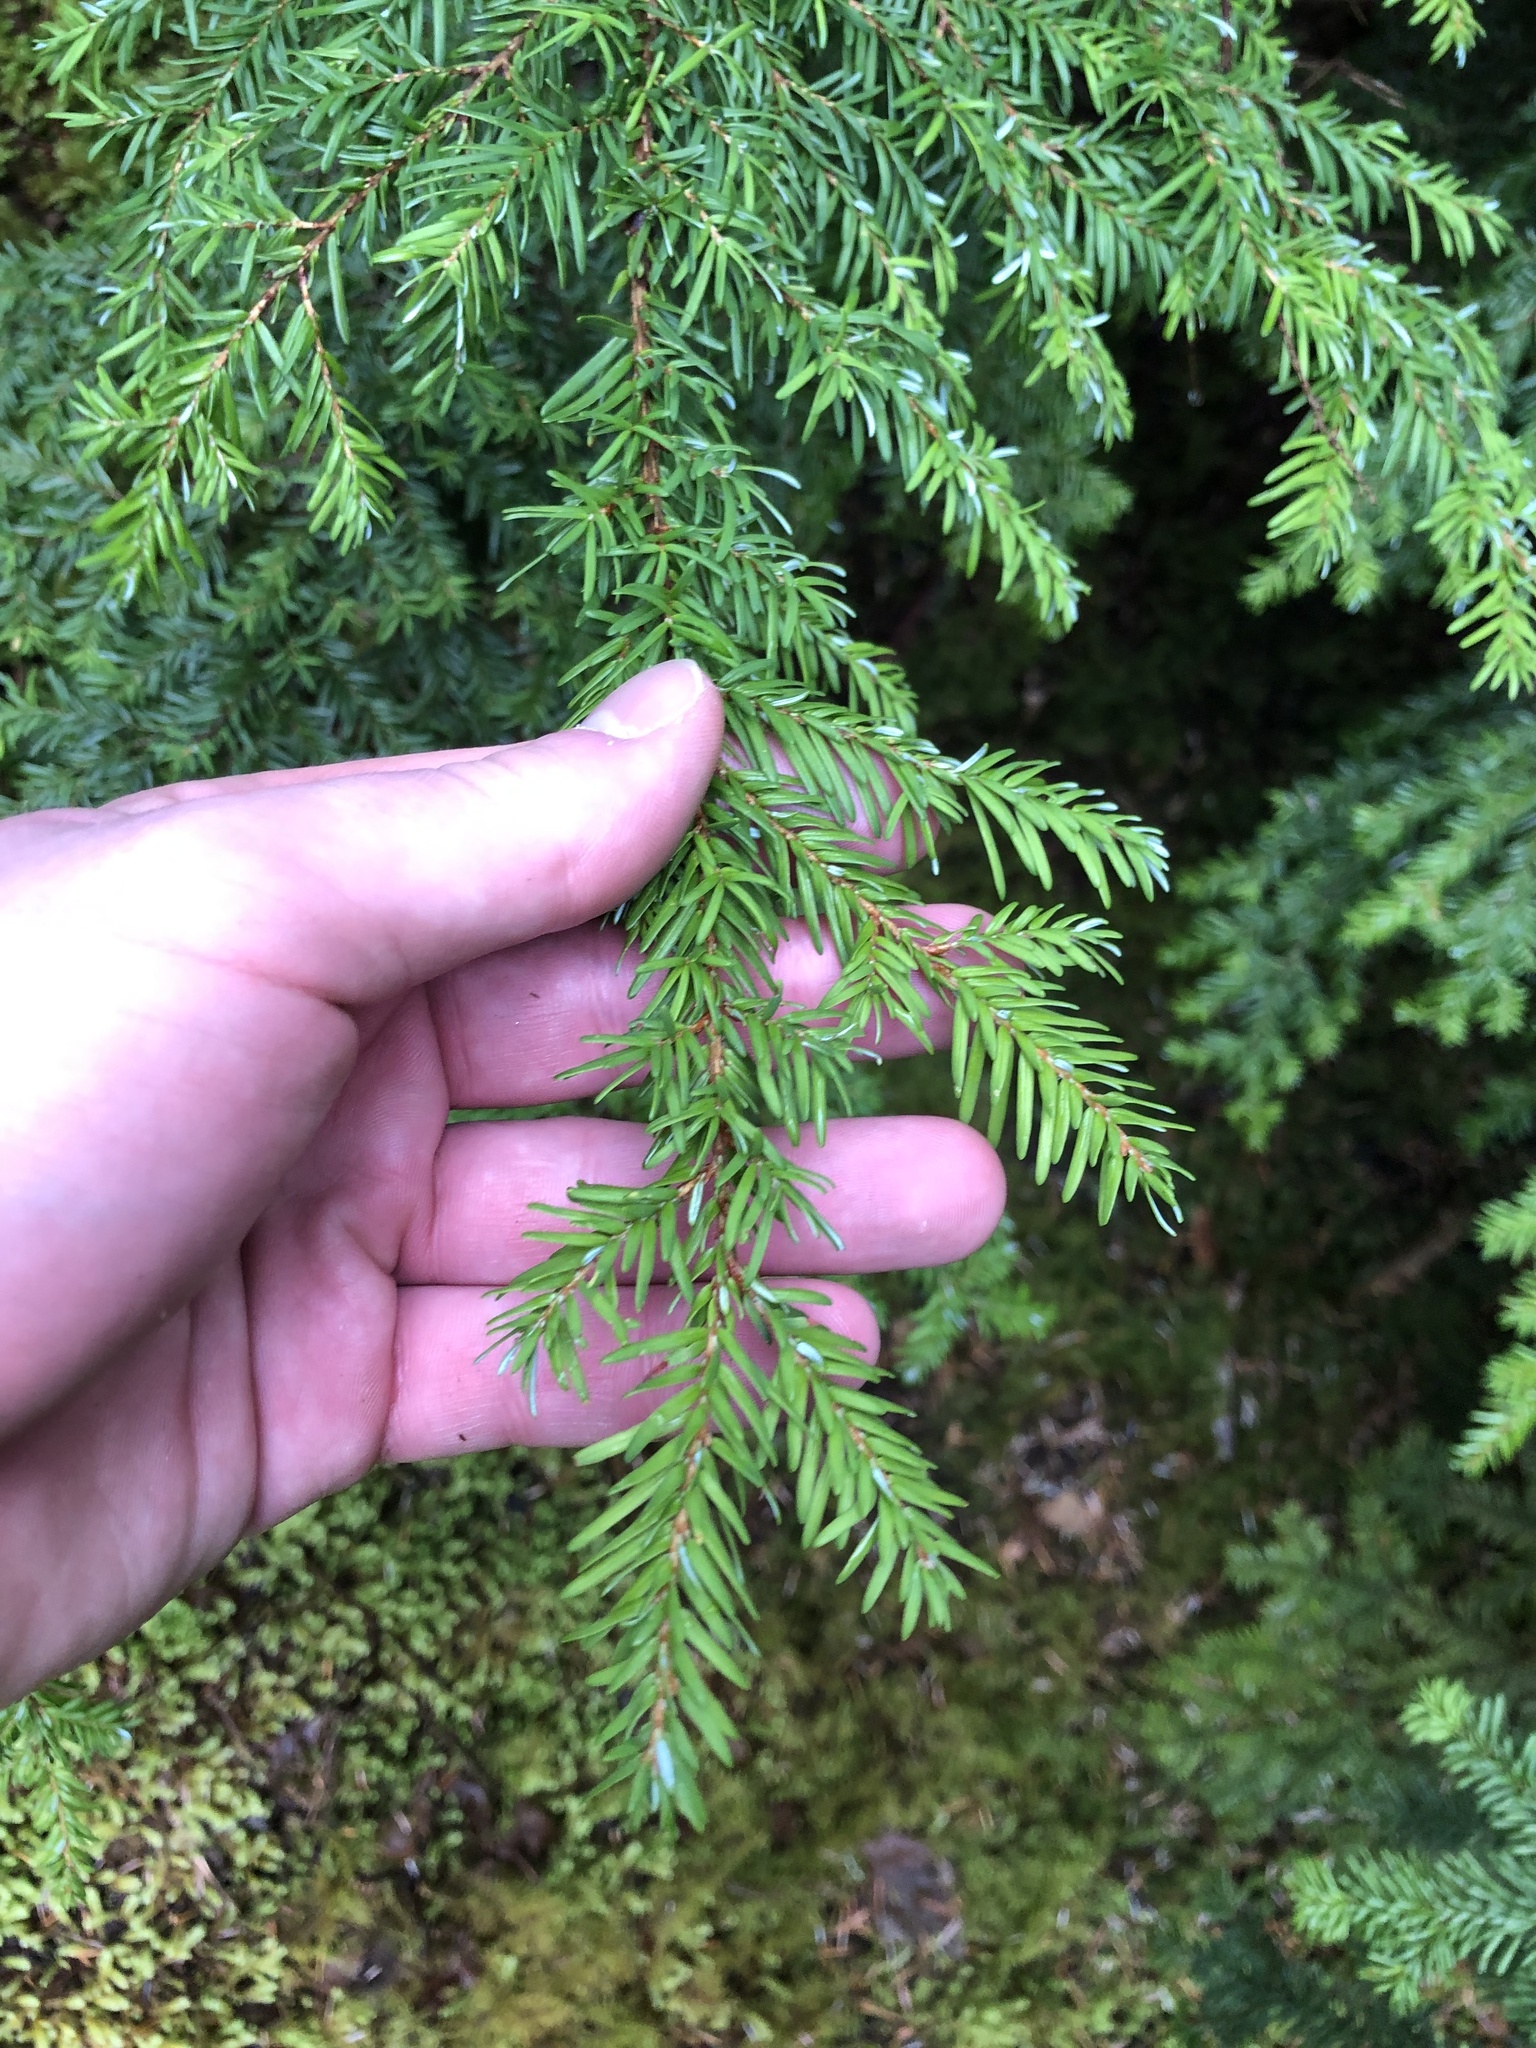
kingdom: Plantae
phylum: Tracheophyta
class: Pinopsida
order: Pinales
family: Pinaceae
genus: Tsuga
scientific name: Tsuga heterophylla
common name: Western hemlock
